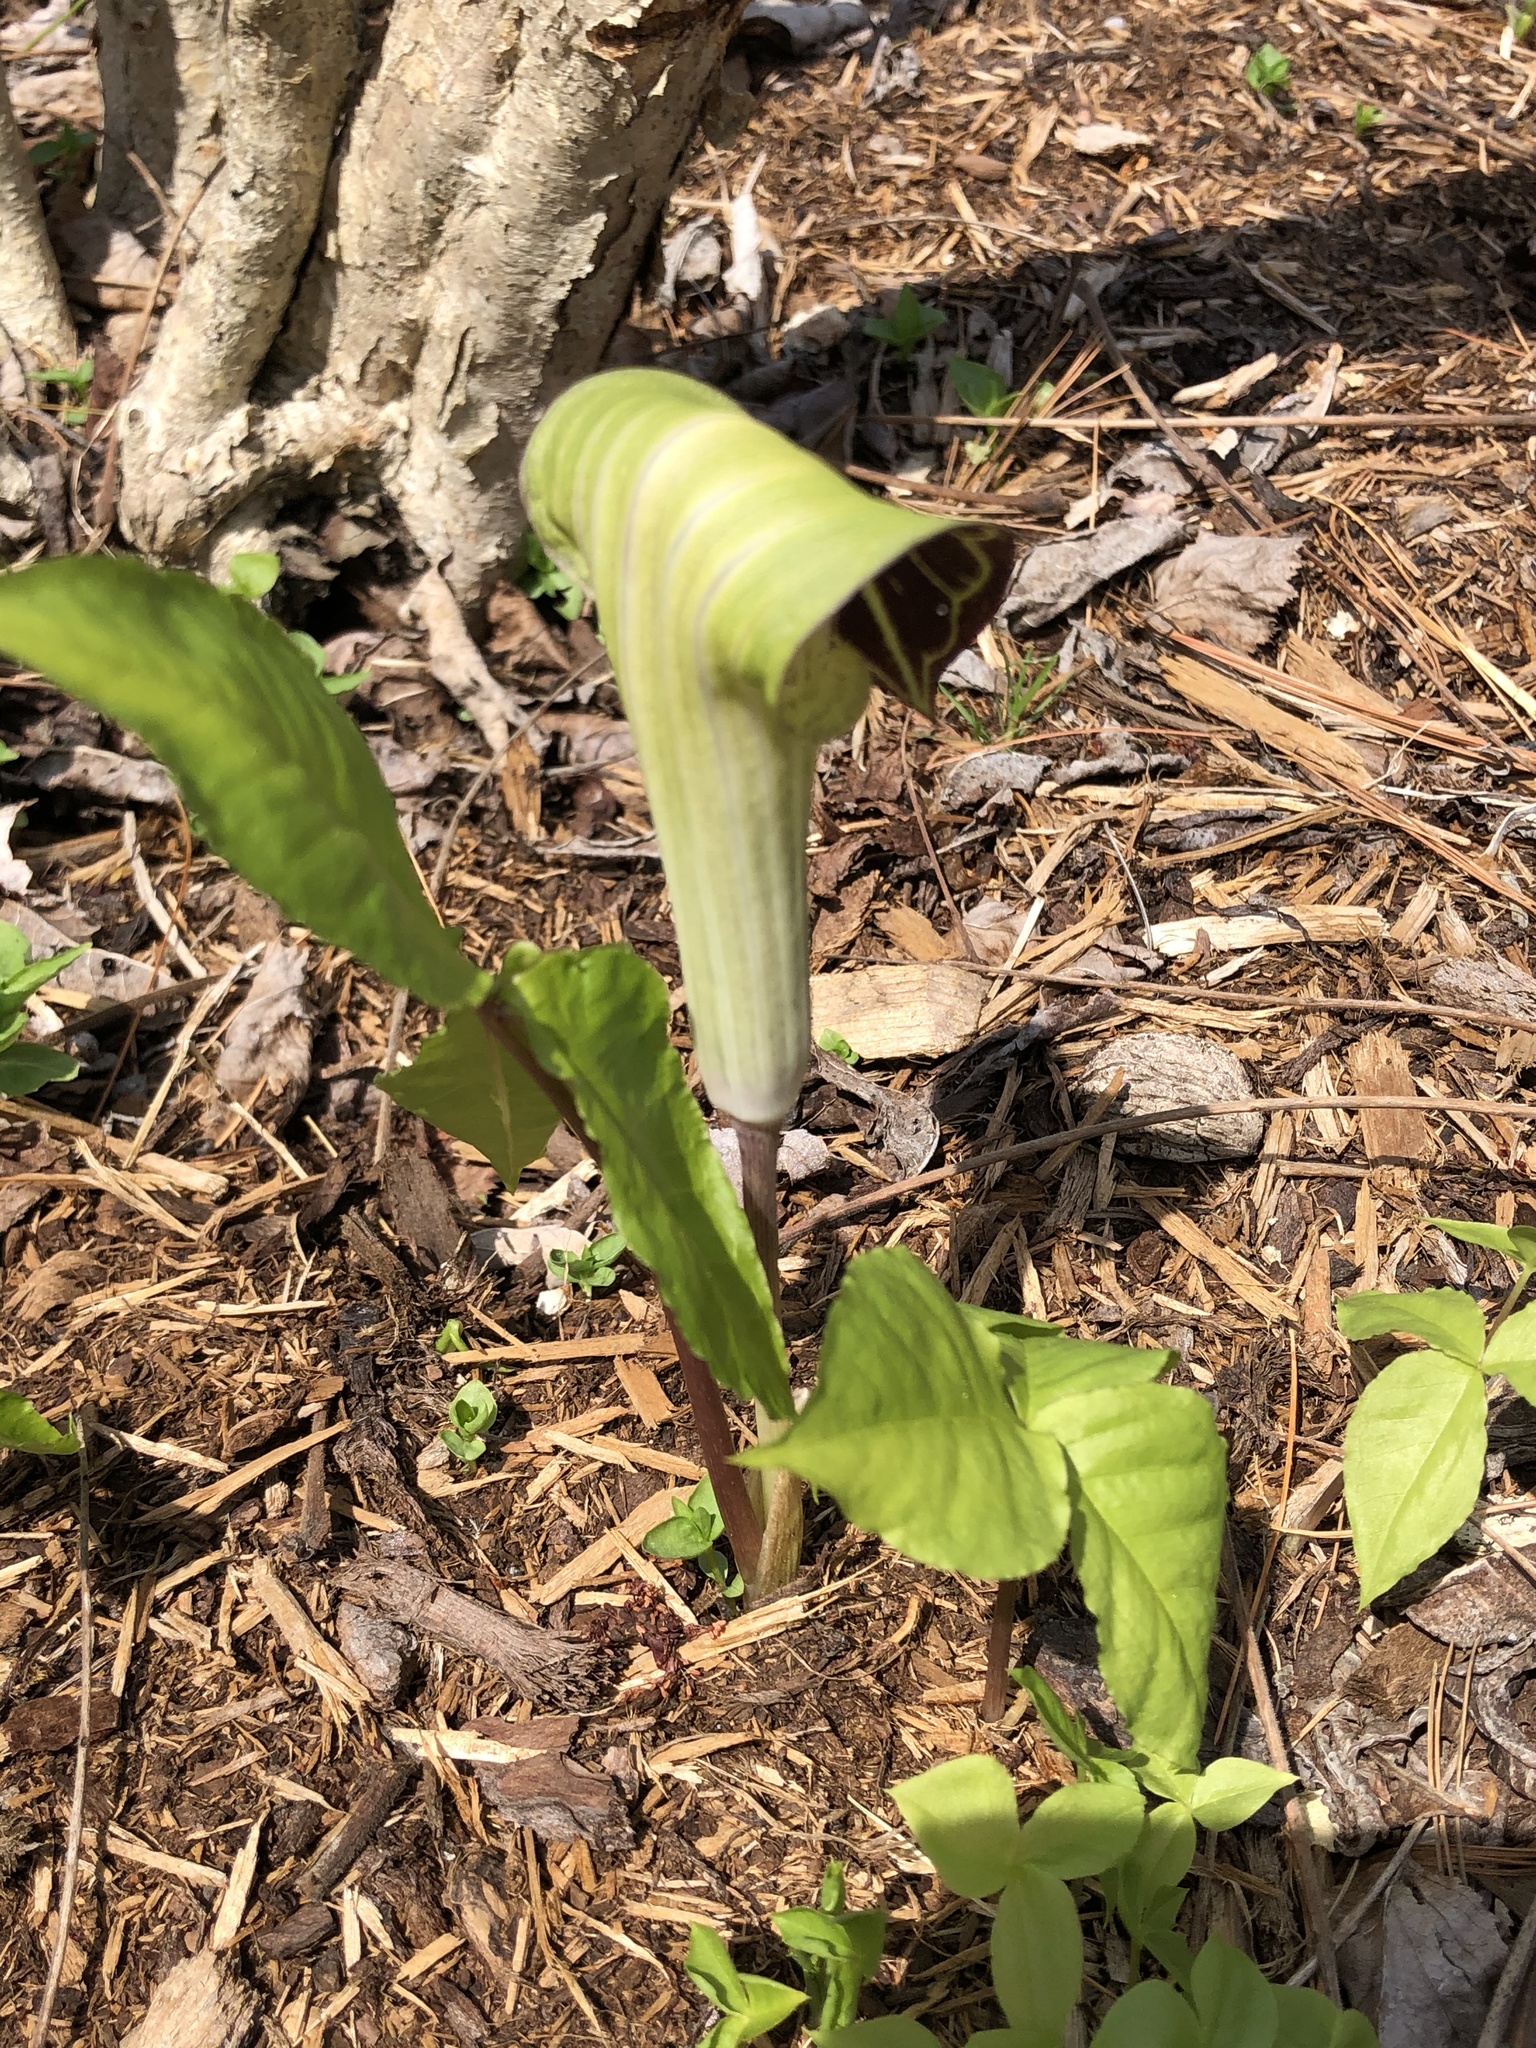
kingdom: Plantae
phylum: Tracheophyta
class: Liliopsida
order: Alismatales
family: Araceae
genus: Arisaema
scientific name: Arisaema triphyllum
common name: Jack-in-the-pulpit
